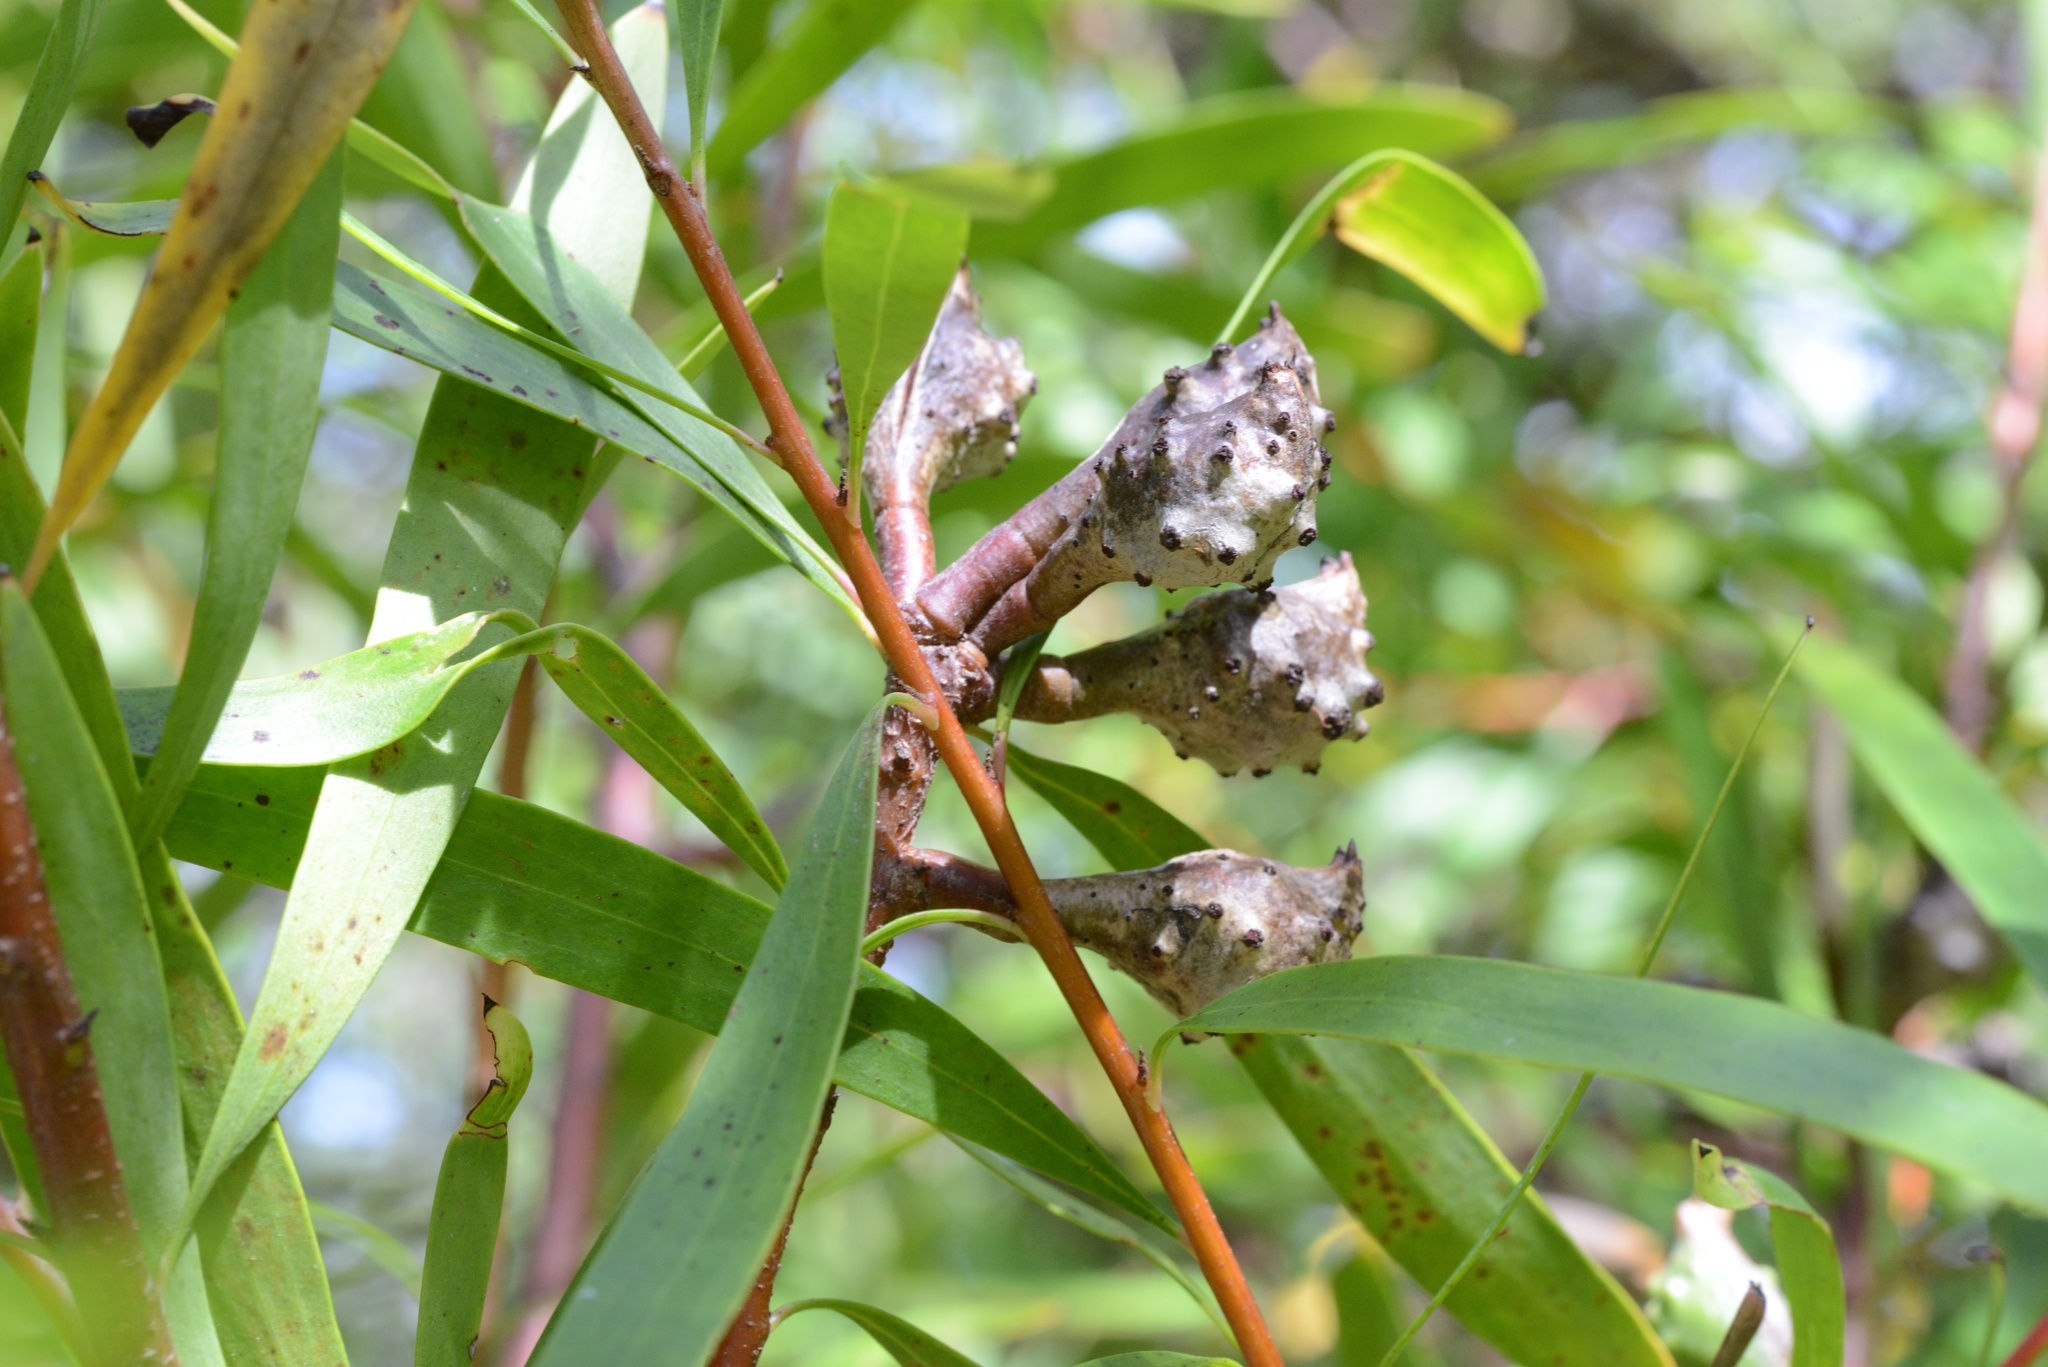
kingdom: Plantae
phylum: Tracheophyta
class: Magnoliopsida
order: Proteales
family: Proteaceae
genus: Hakea
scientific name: Hakea salicifolia
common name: Willow hakea
